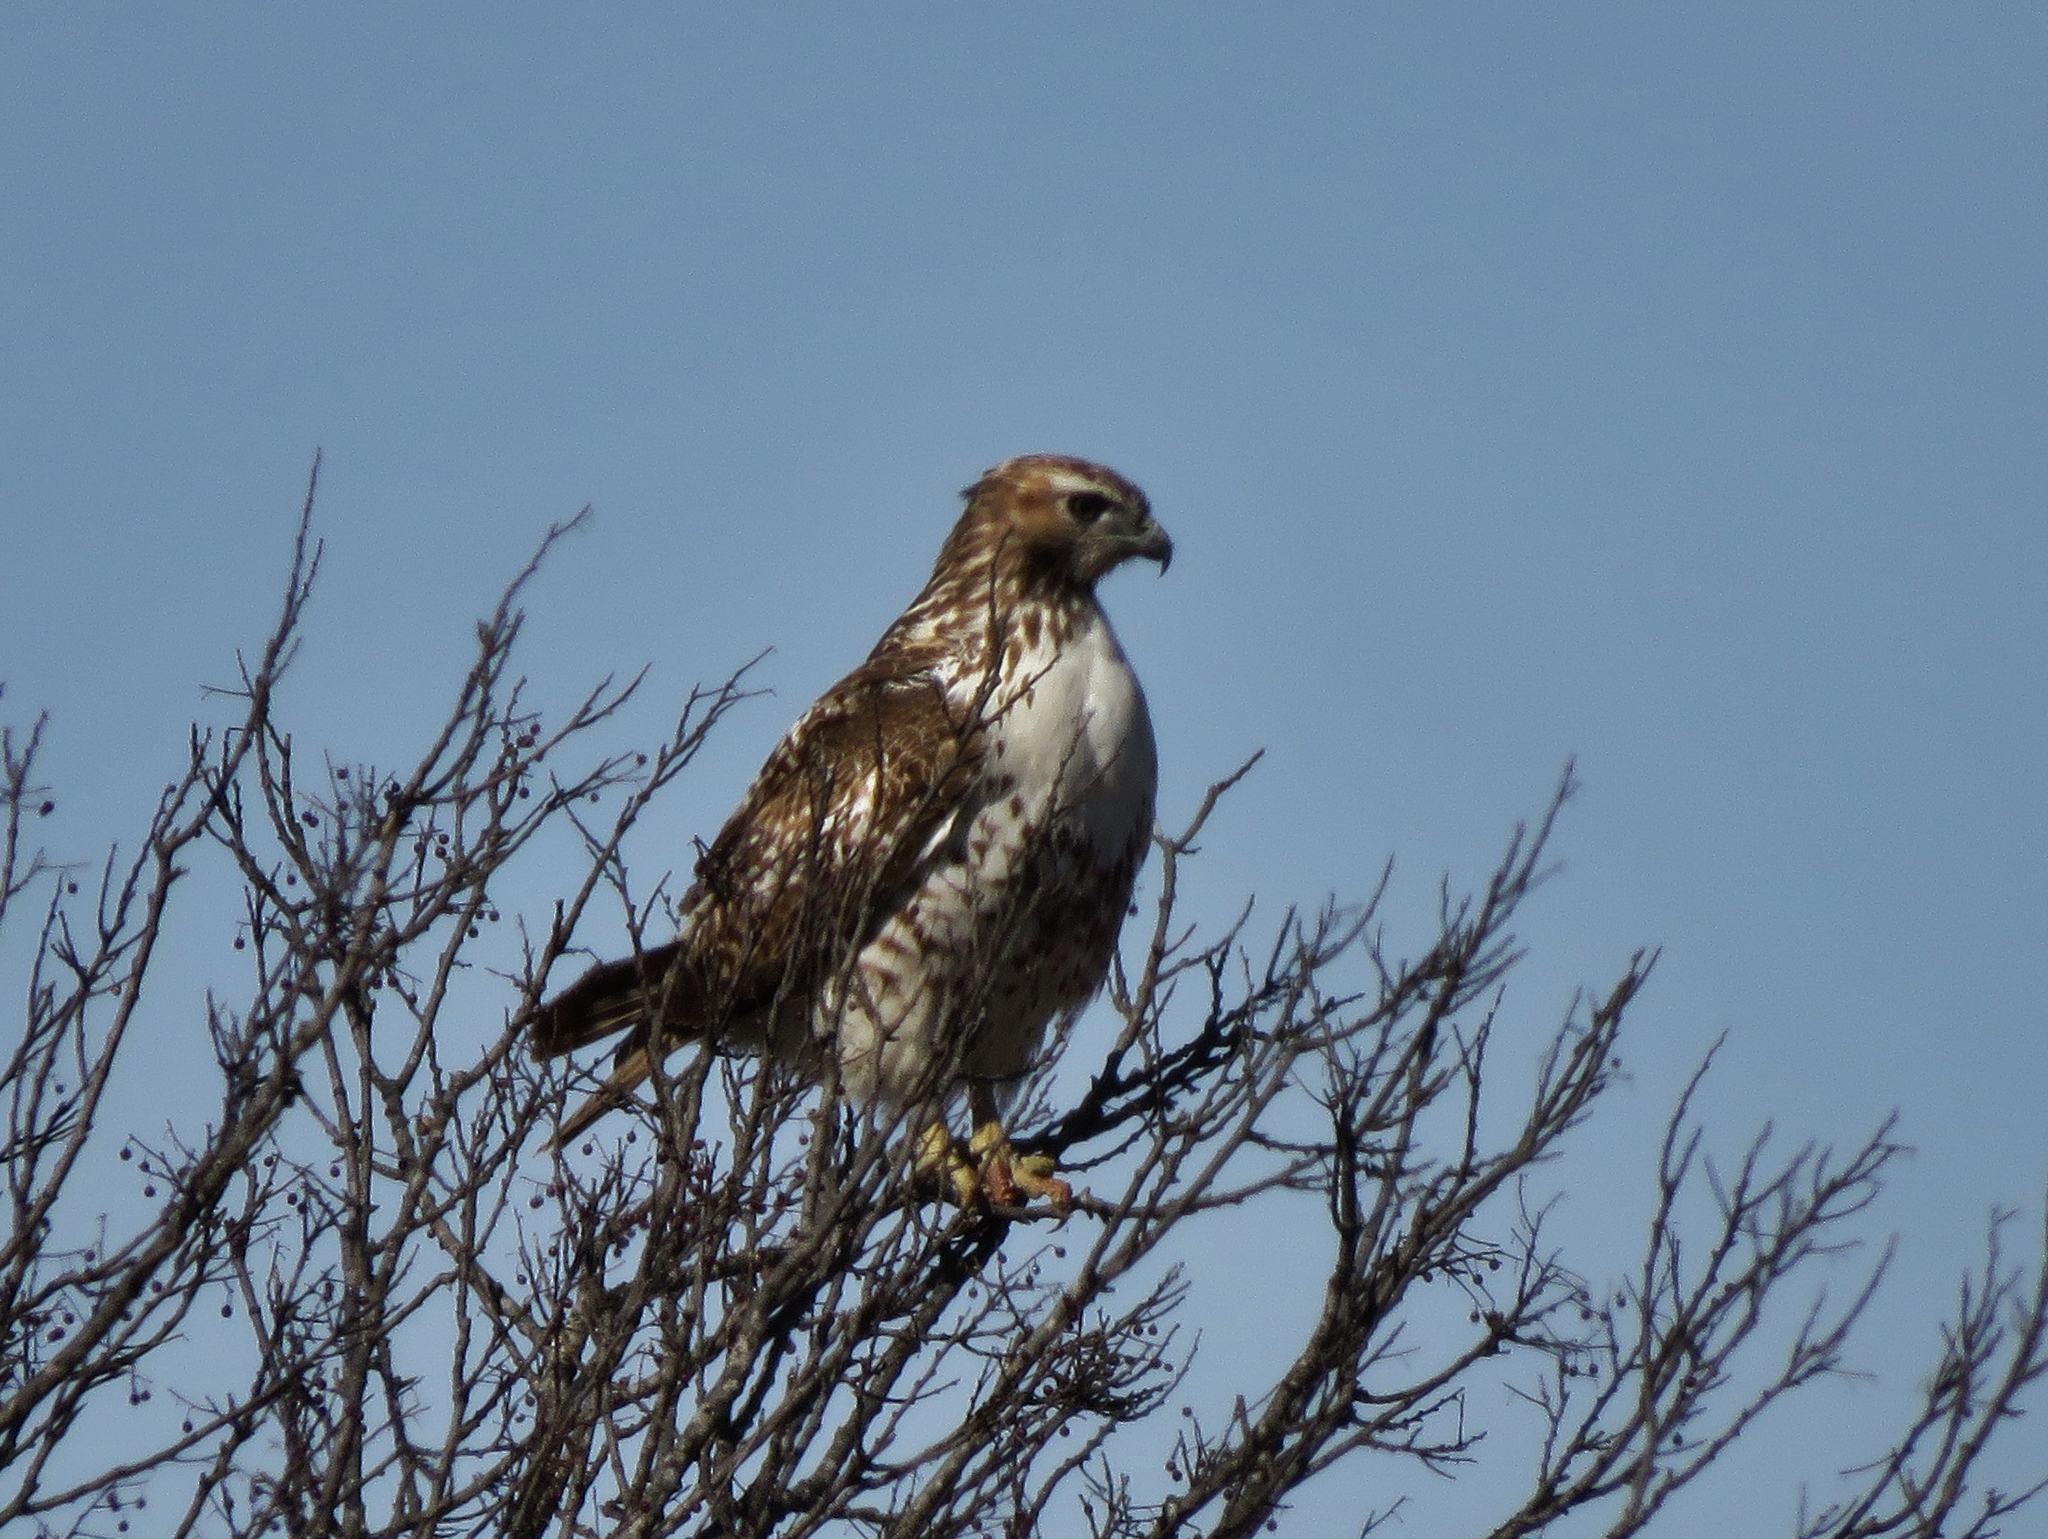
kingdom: Animalia
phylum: Chordata
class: Aves
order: Accipitriformes
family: Accipitridae
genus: Buteo
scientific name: Buteo jamaicensis
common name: Red-tailed hawk
